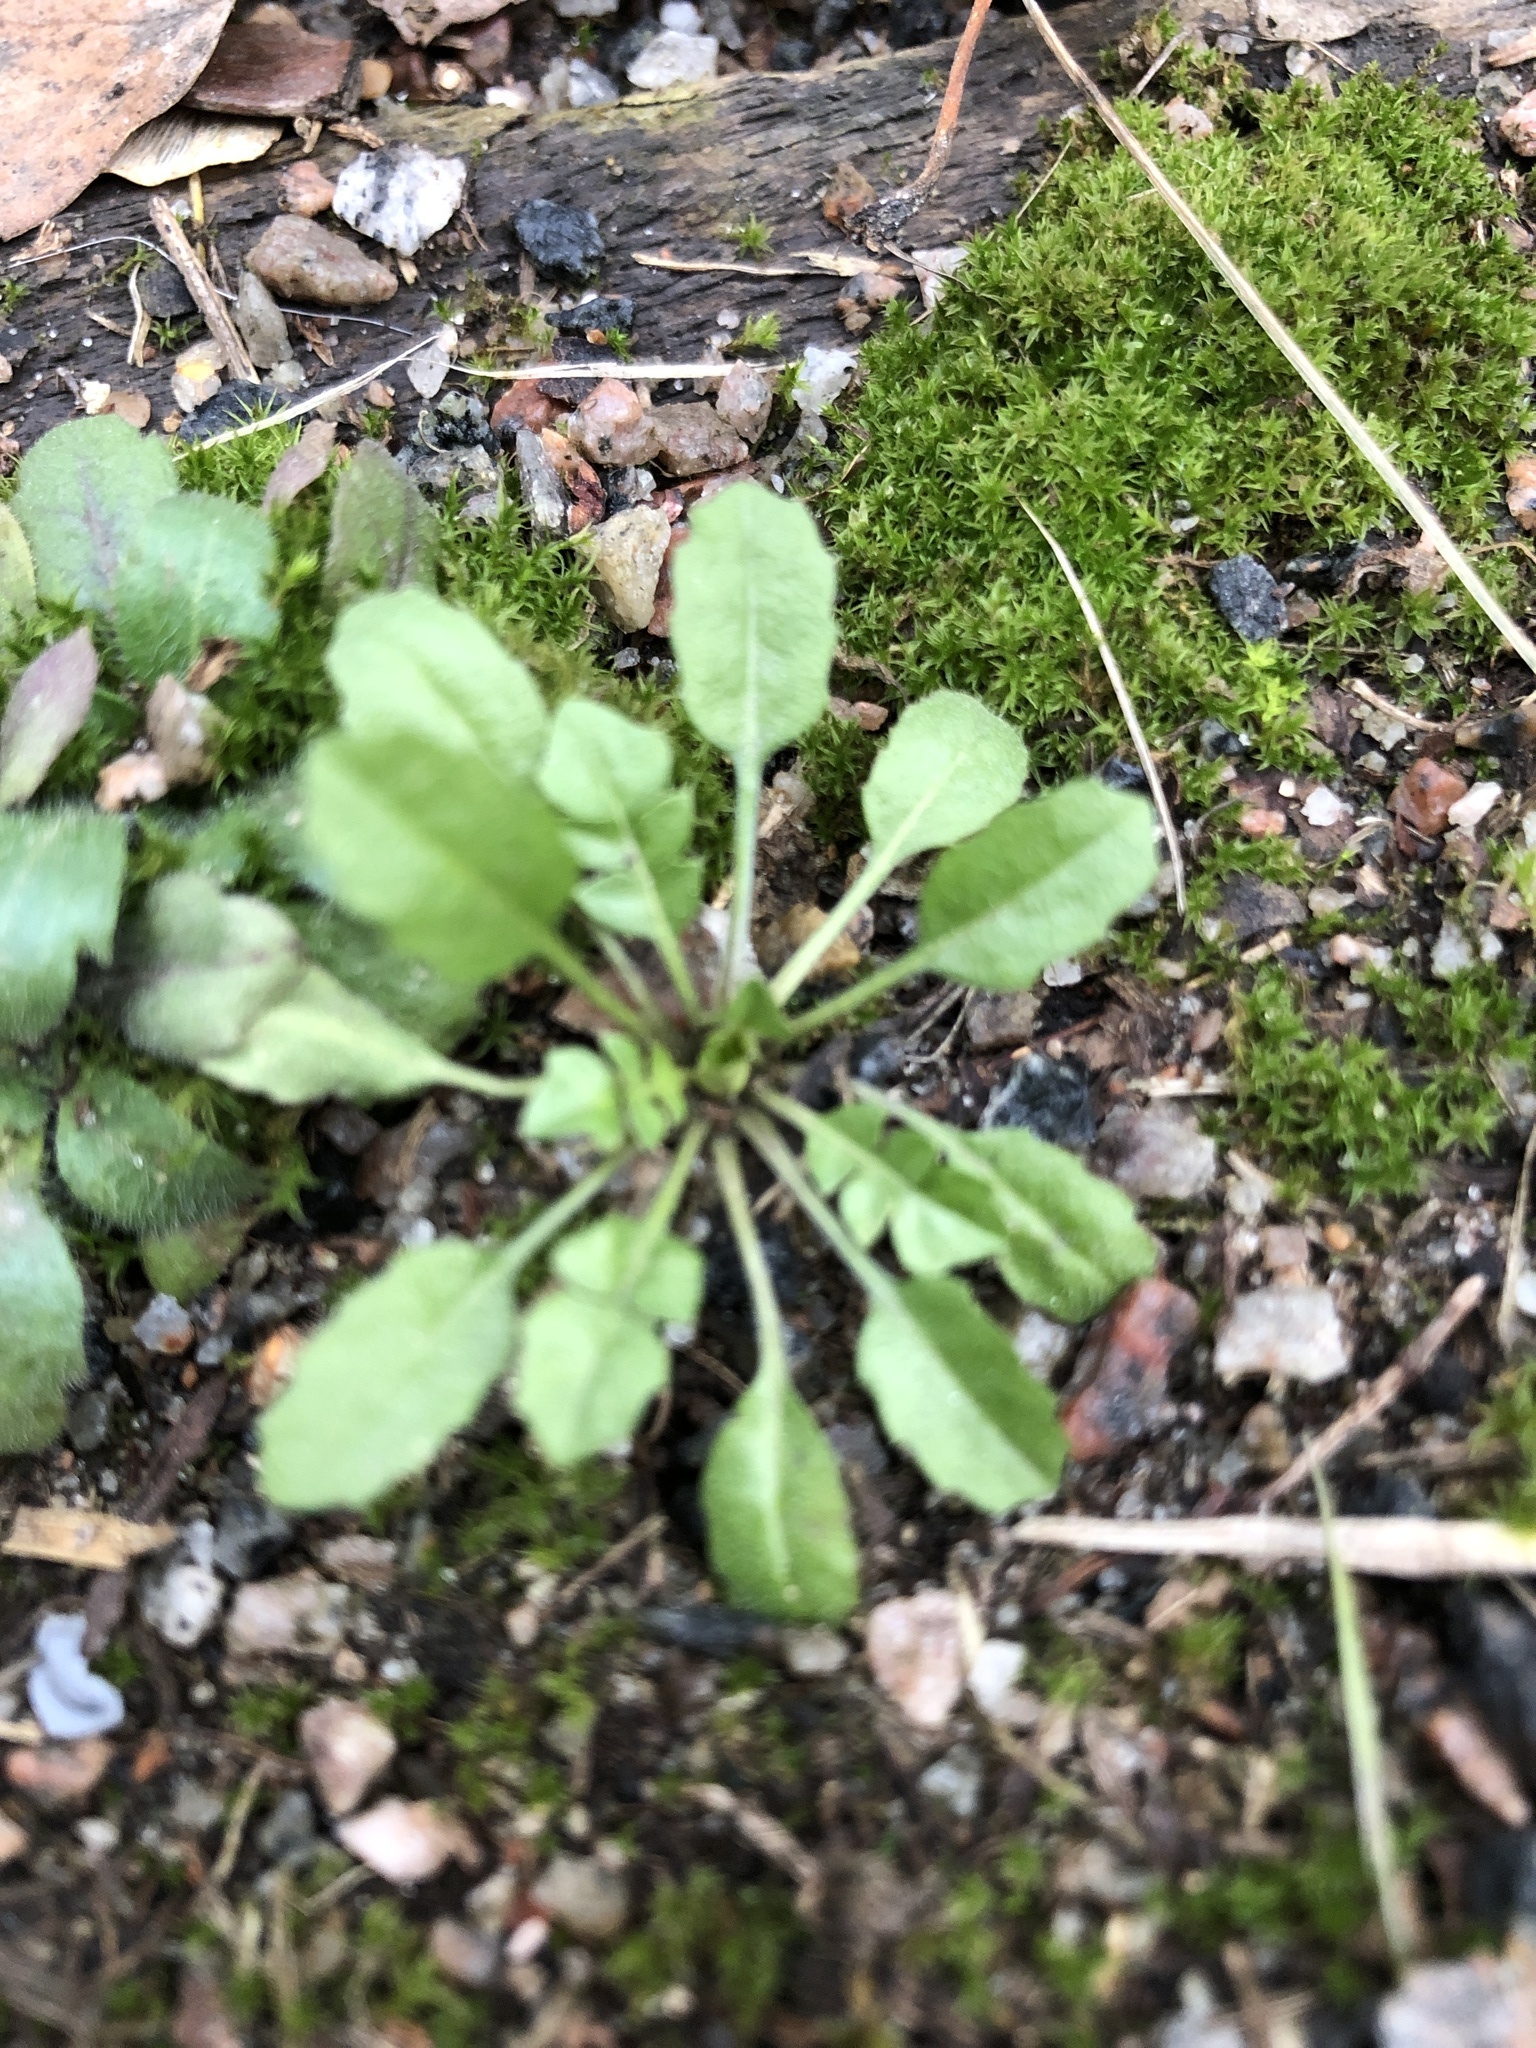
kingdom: Plantae
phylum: Tracheophyta
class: Magnoliopsida
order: Brassicales
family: Brassicaceae
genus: Capsella
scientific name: Capsella bursa-pastoris
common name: Shepherd's purse
